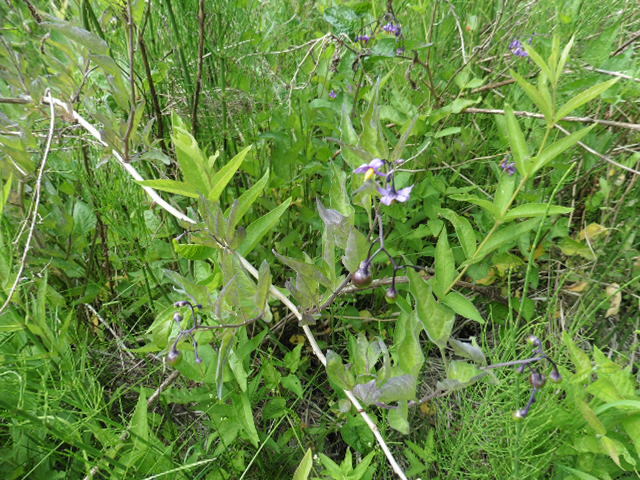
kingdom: Plantae
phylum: Tracheophyta
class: Magnoliopsida
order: Solanales
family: Solanaceae
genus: Solanum
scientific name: Solanum dulcamara
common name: Climbing nightshade
